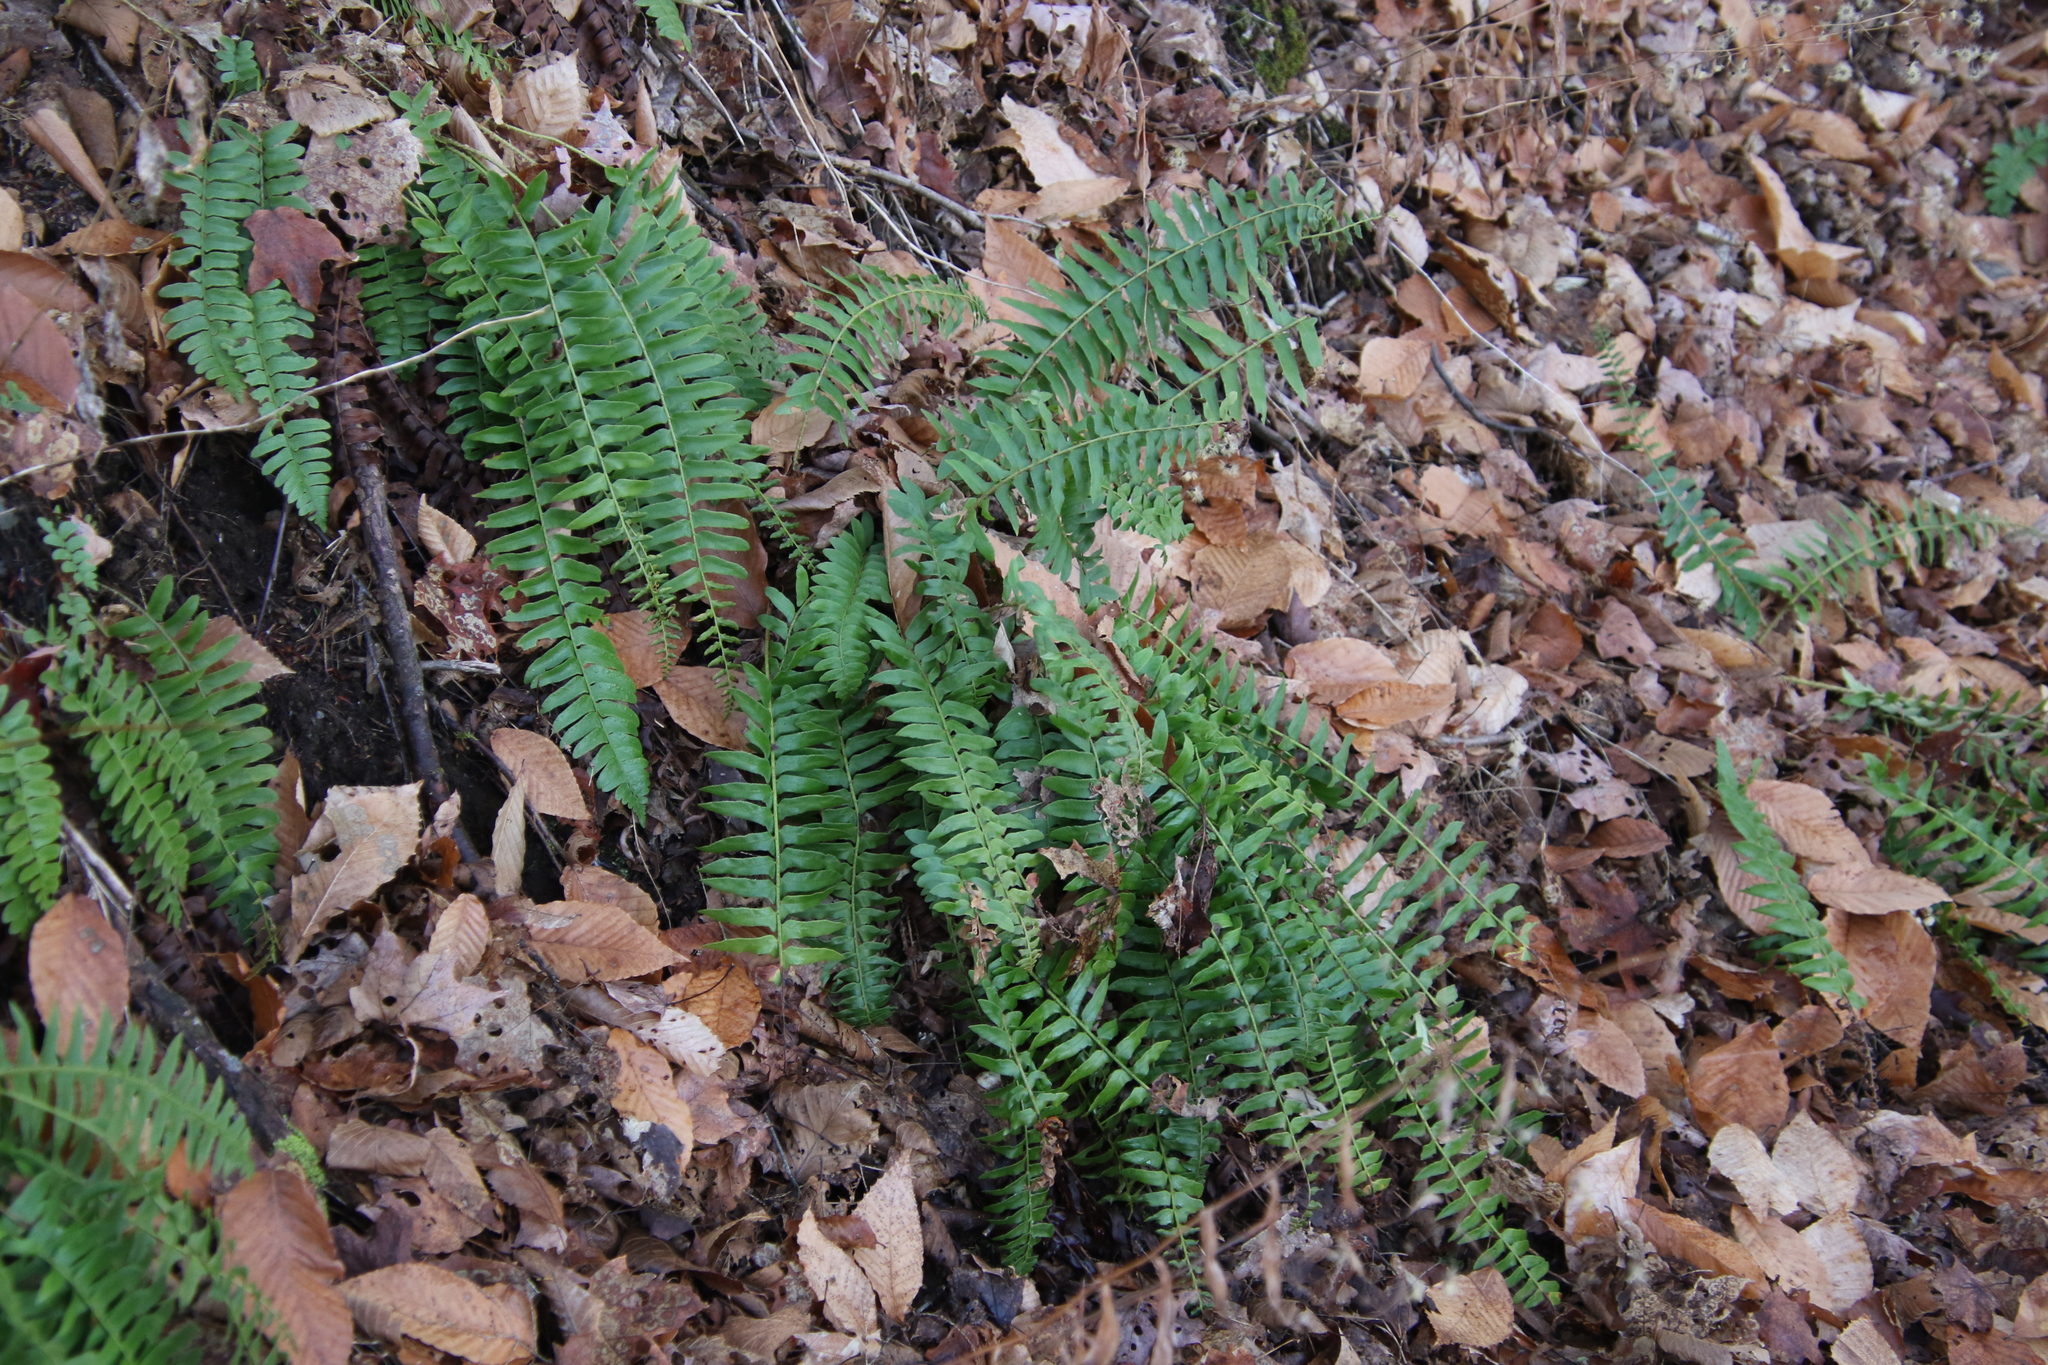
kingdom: Plantae
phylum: Tracheophyta
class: Polypodiopsida
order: Polypodiales
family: Dryopteridaceae
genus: Polystichum
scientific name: Polystichum acrostichoides
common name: Christmas fern
